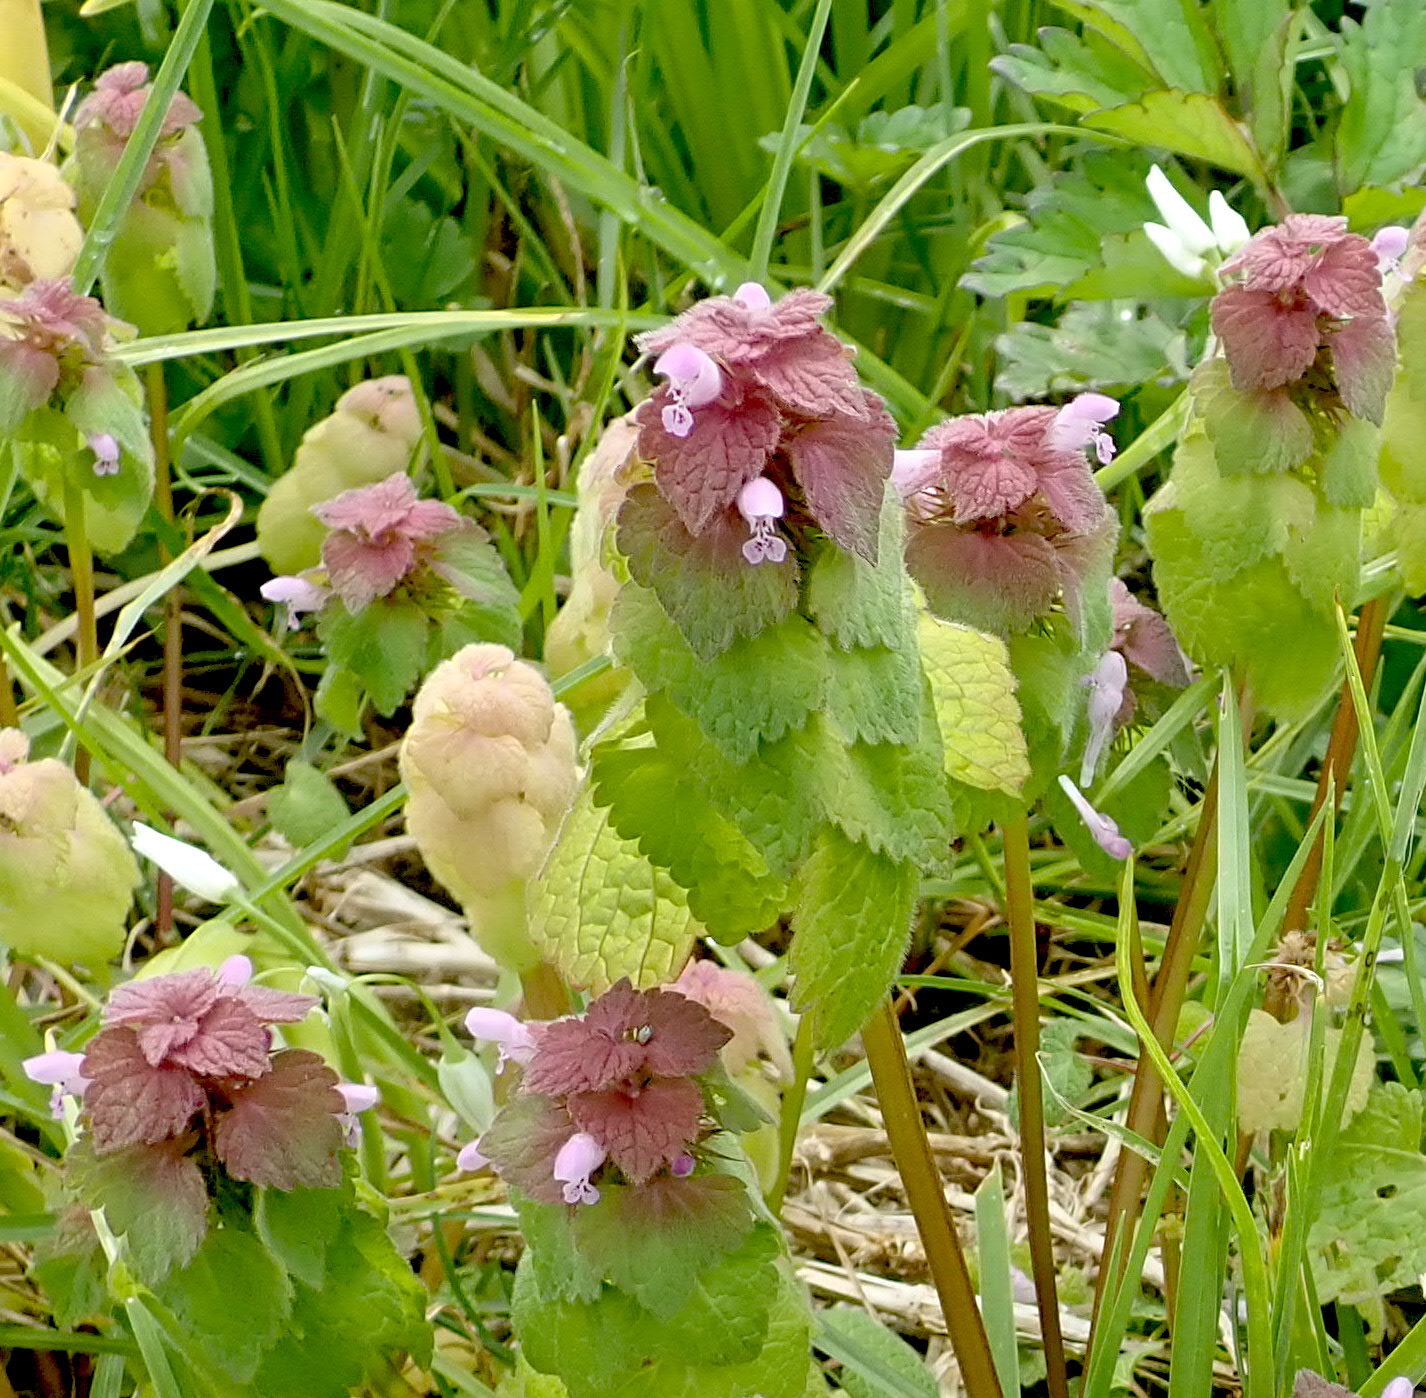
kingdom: Plantae
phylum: Tracheophyta
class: Magnoliopsida
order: Lamiales
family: Lamiaceae
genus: Lamium
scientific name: Lamium purpureum
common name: Red dead-nettle
